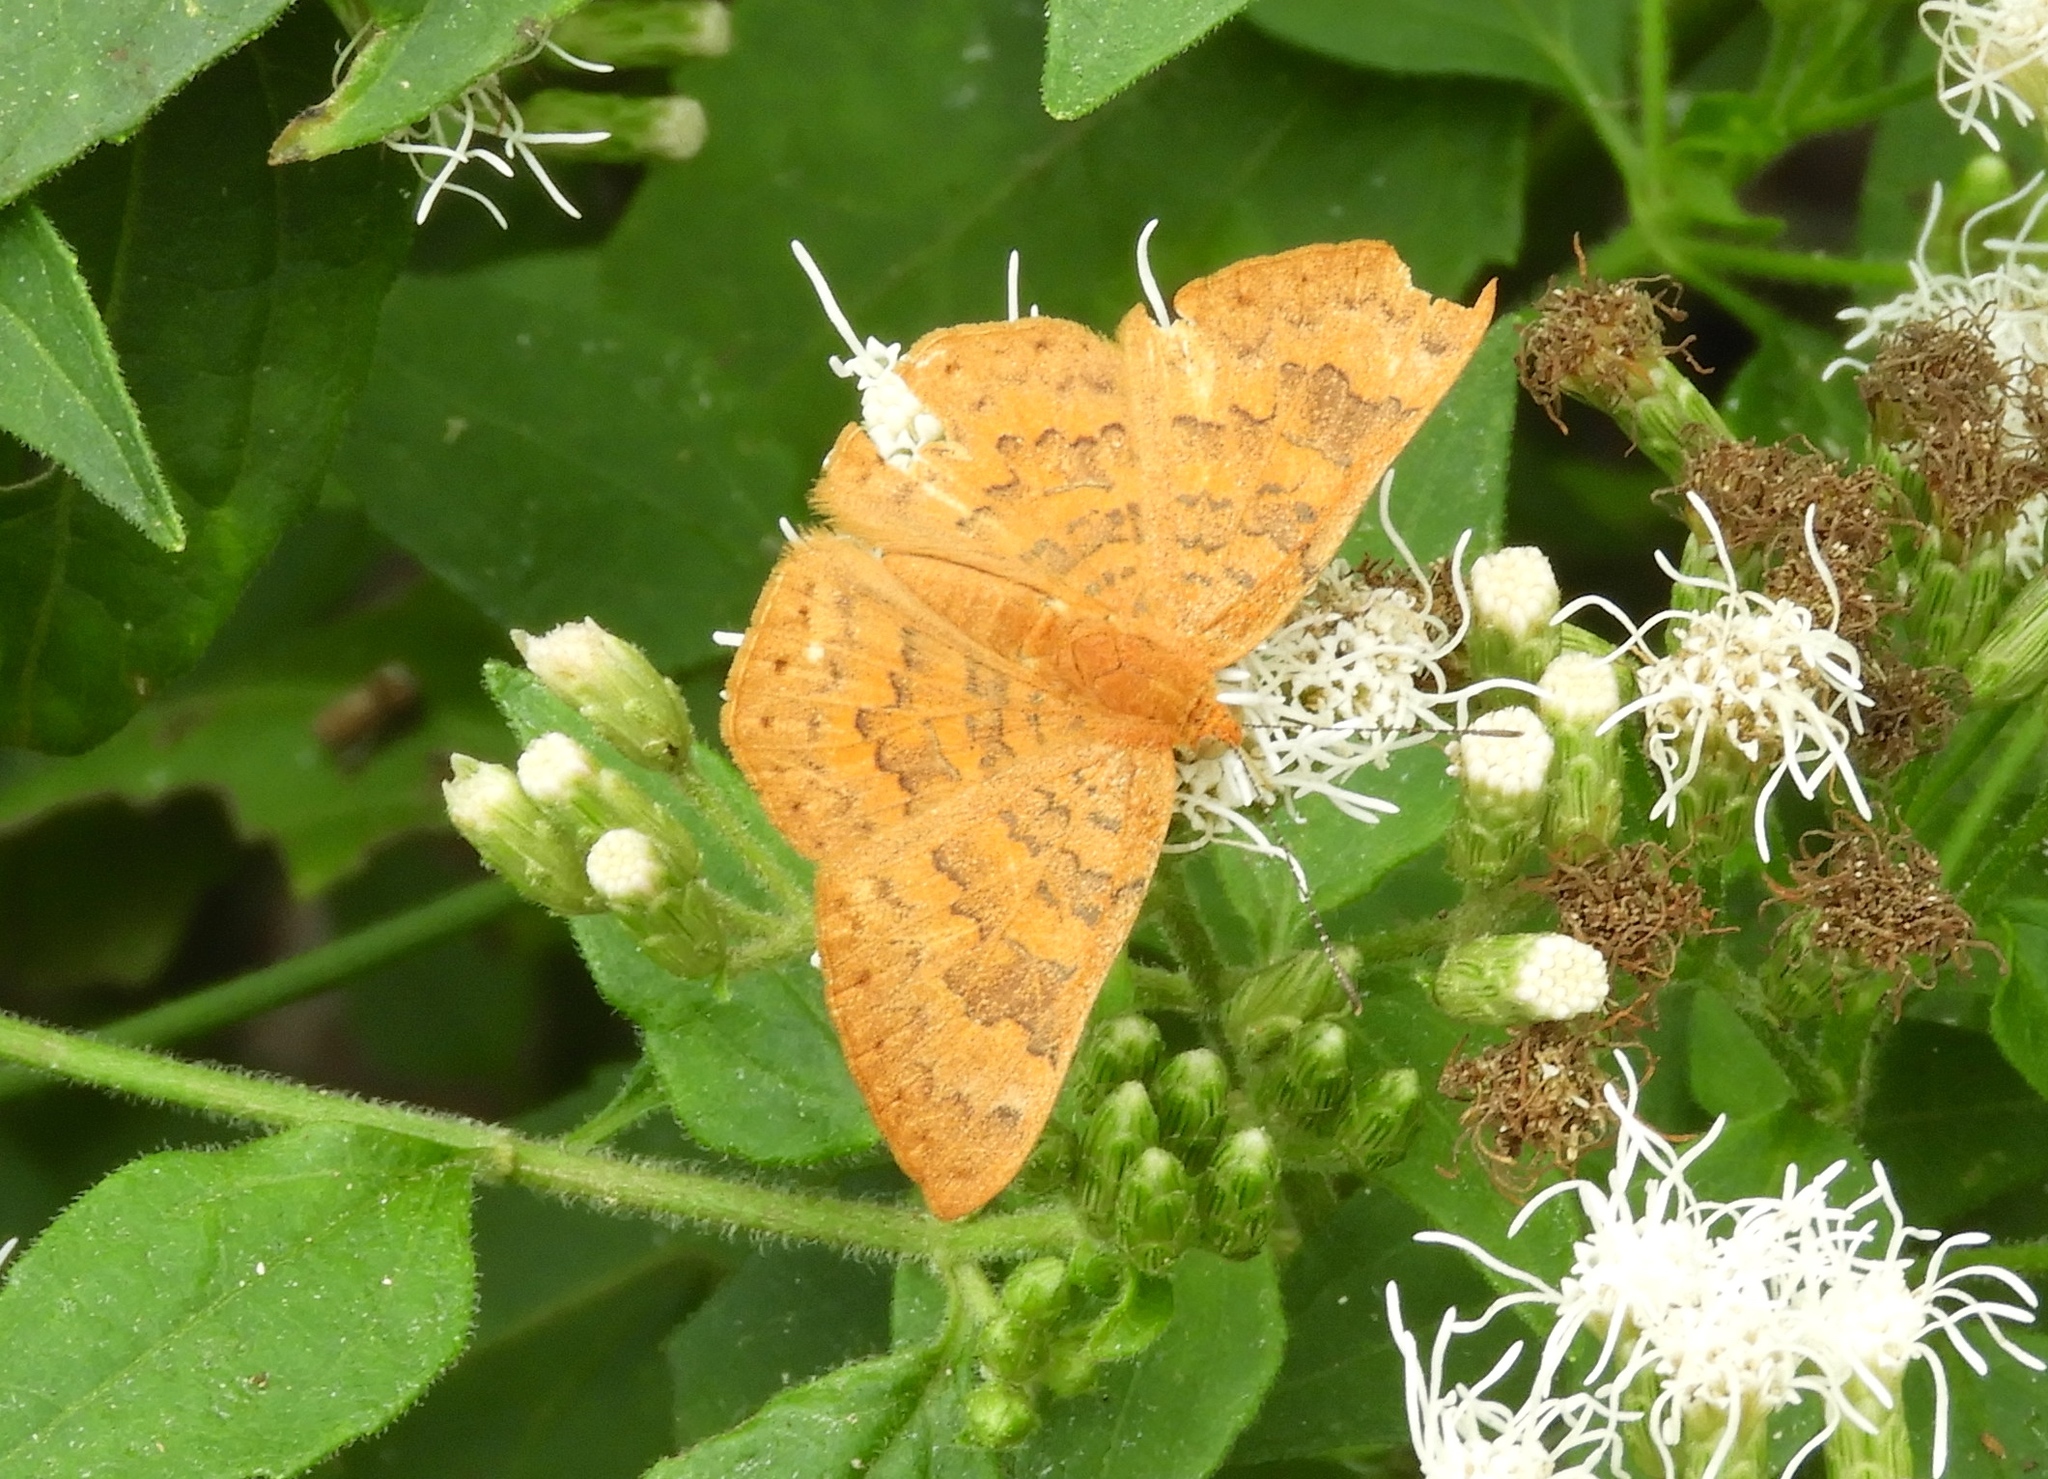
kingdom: Animalia
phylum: Arthropoda
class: Insecta
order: Lepidoptera
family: Lycaenidae
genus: Emesis
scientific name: Emesis
